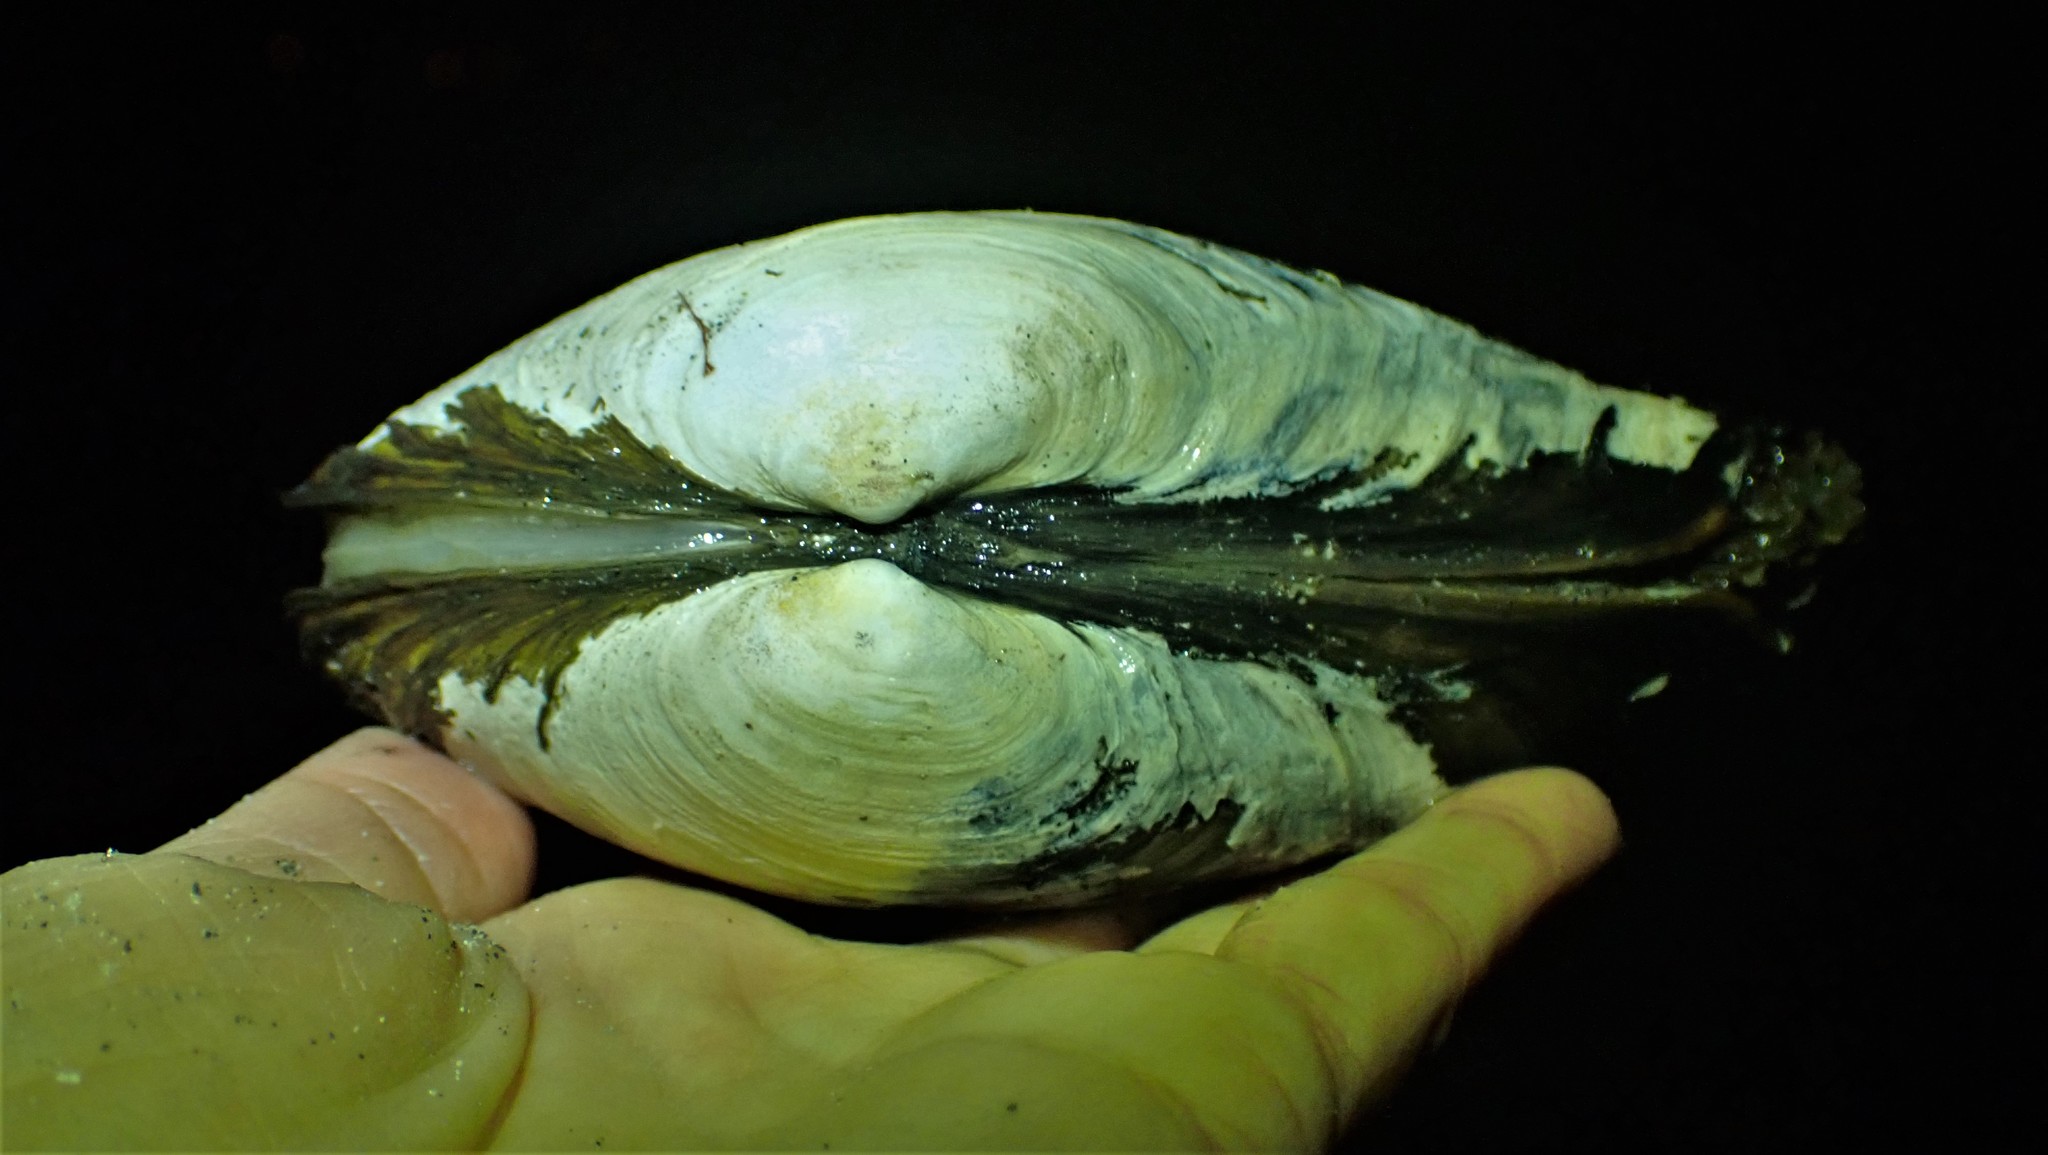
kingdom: Animalia
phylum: Mollusca
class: Bivalvia
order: Venerida
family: Mactridae
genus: Tresus
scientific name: Tresus nuttallii
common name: Pacific gaper clam
